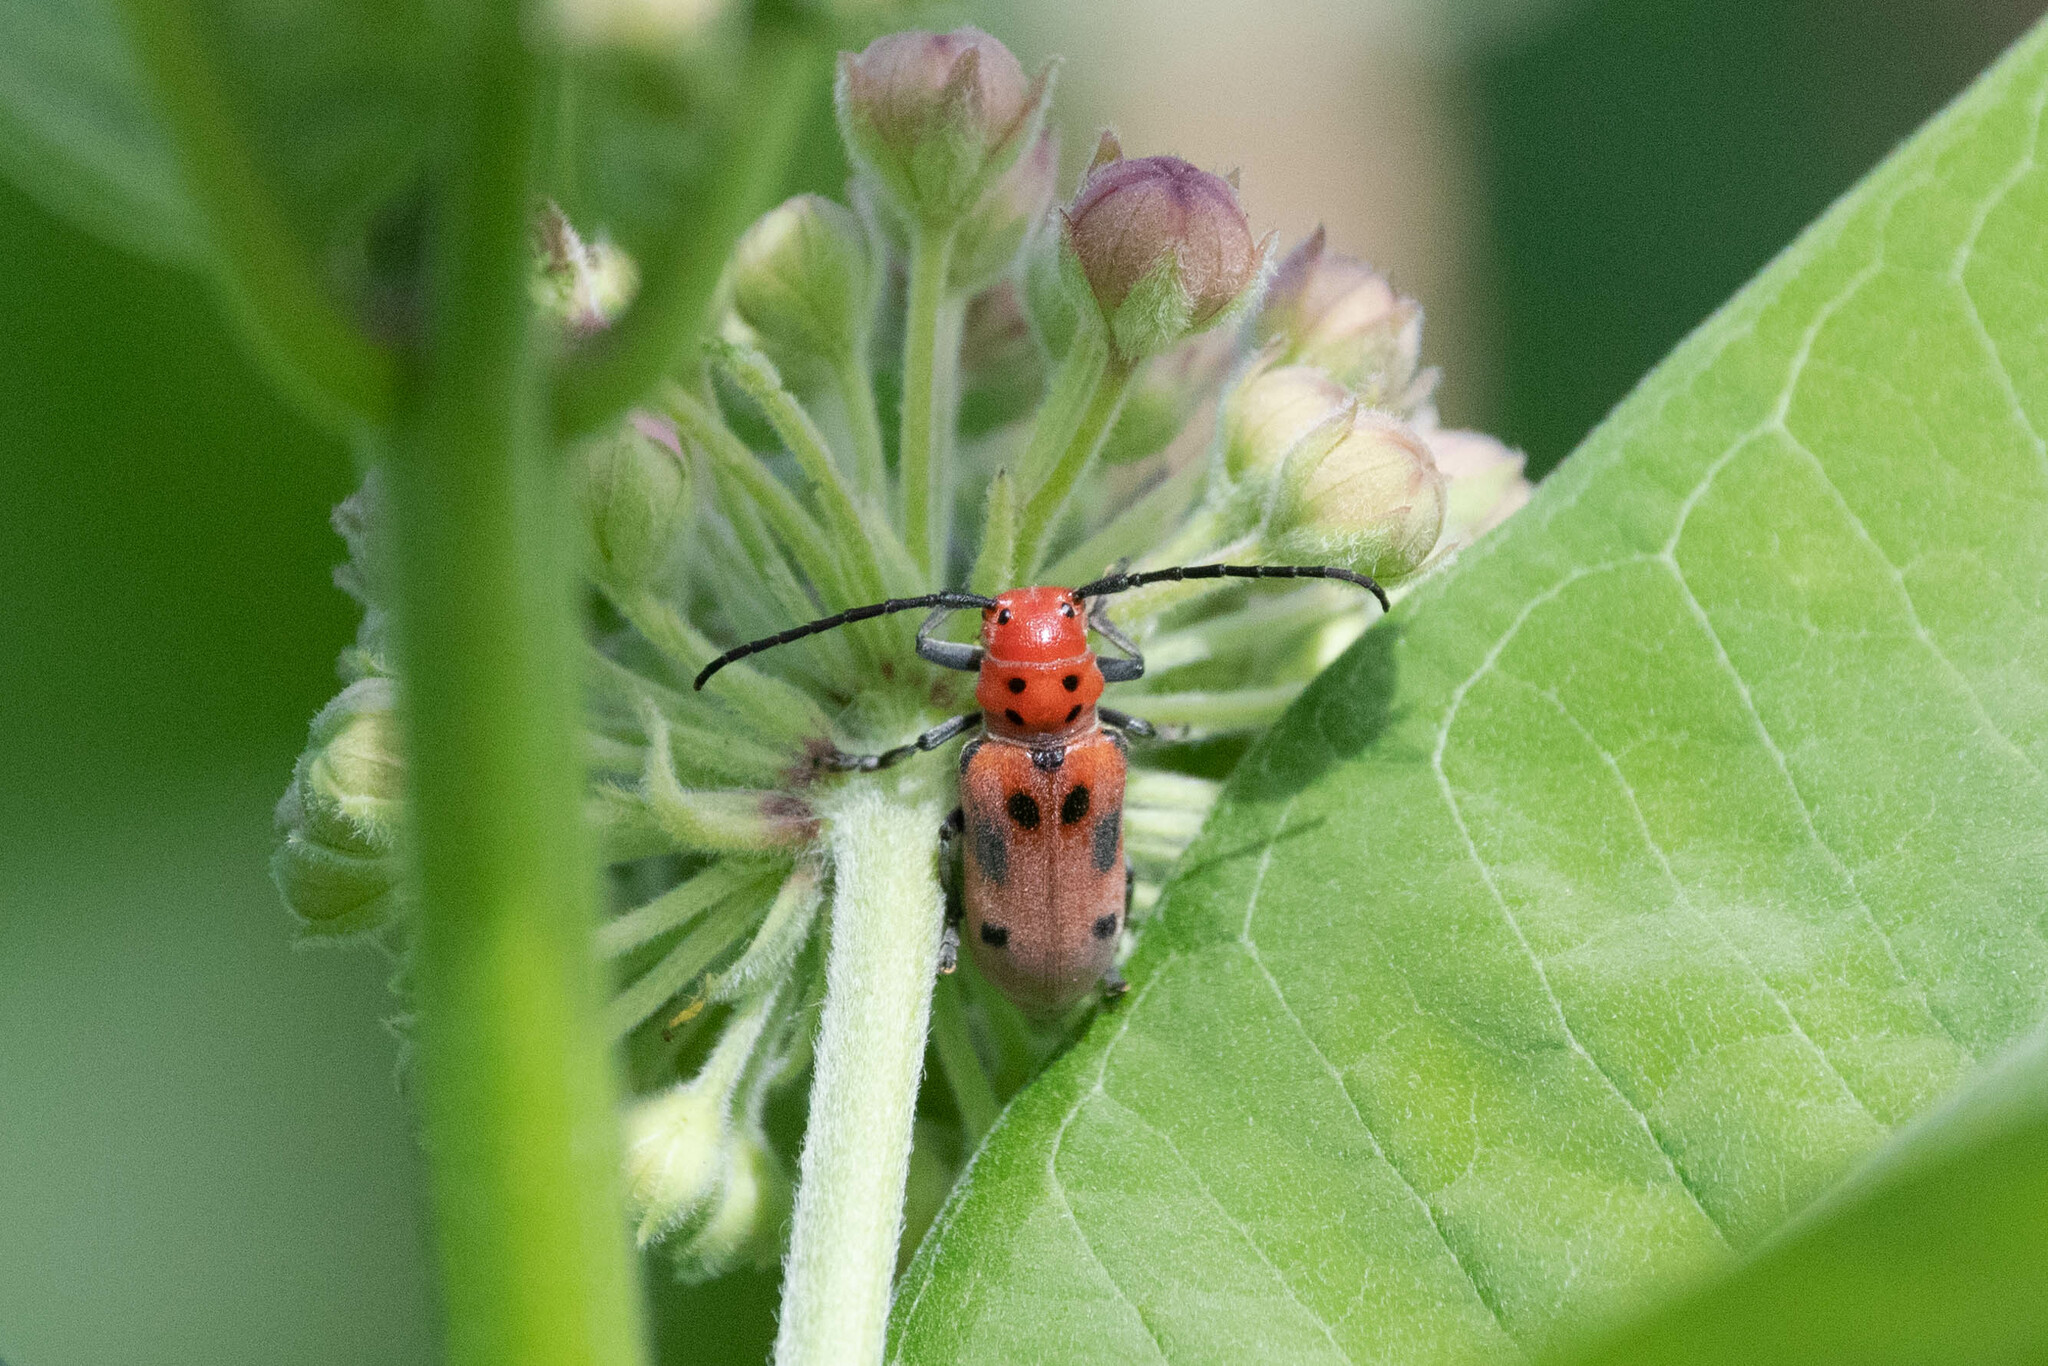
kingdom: Animalia
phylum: Arthropoda
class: Insecta
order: Coleoptera
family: Cerambycidae
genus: Tetraopes
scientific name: Tetraopes tetrophthalmus
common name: Red milkweed beetle
